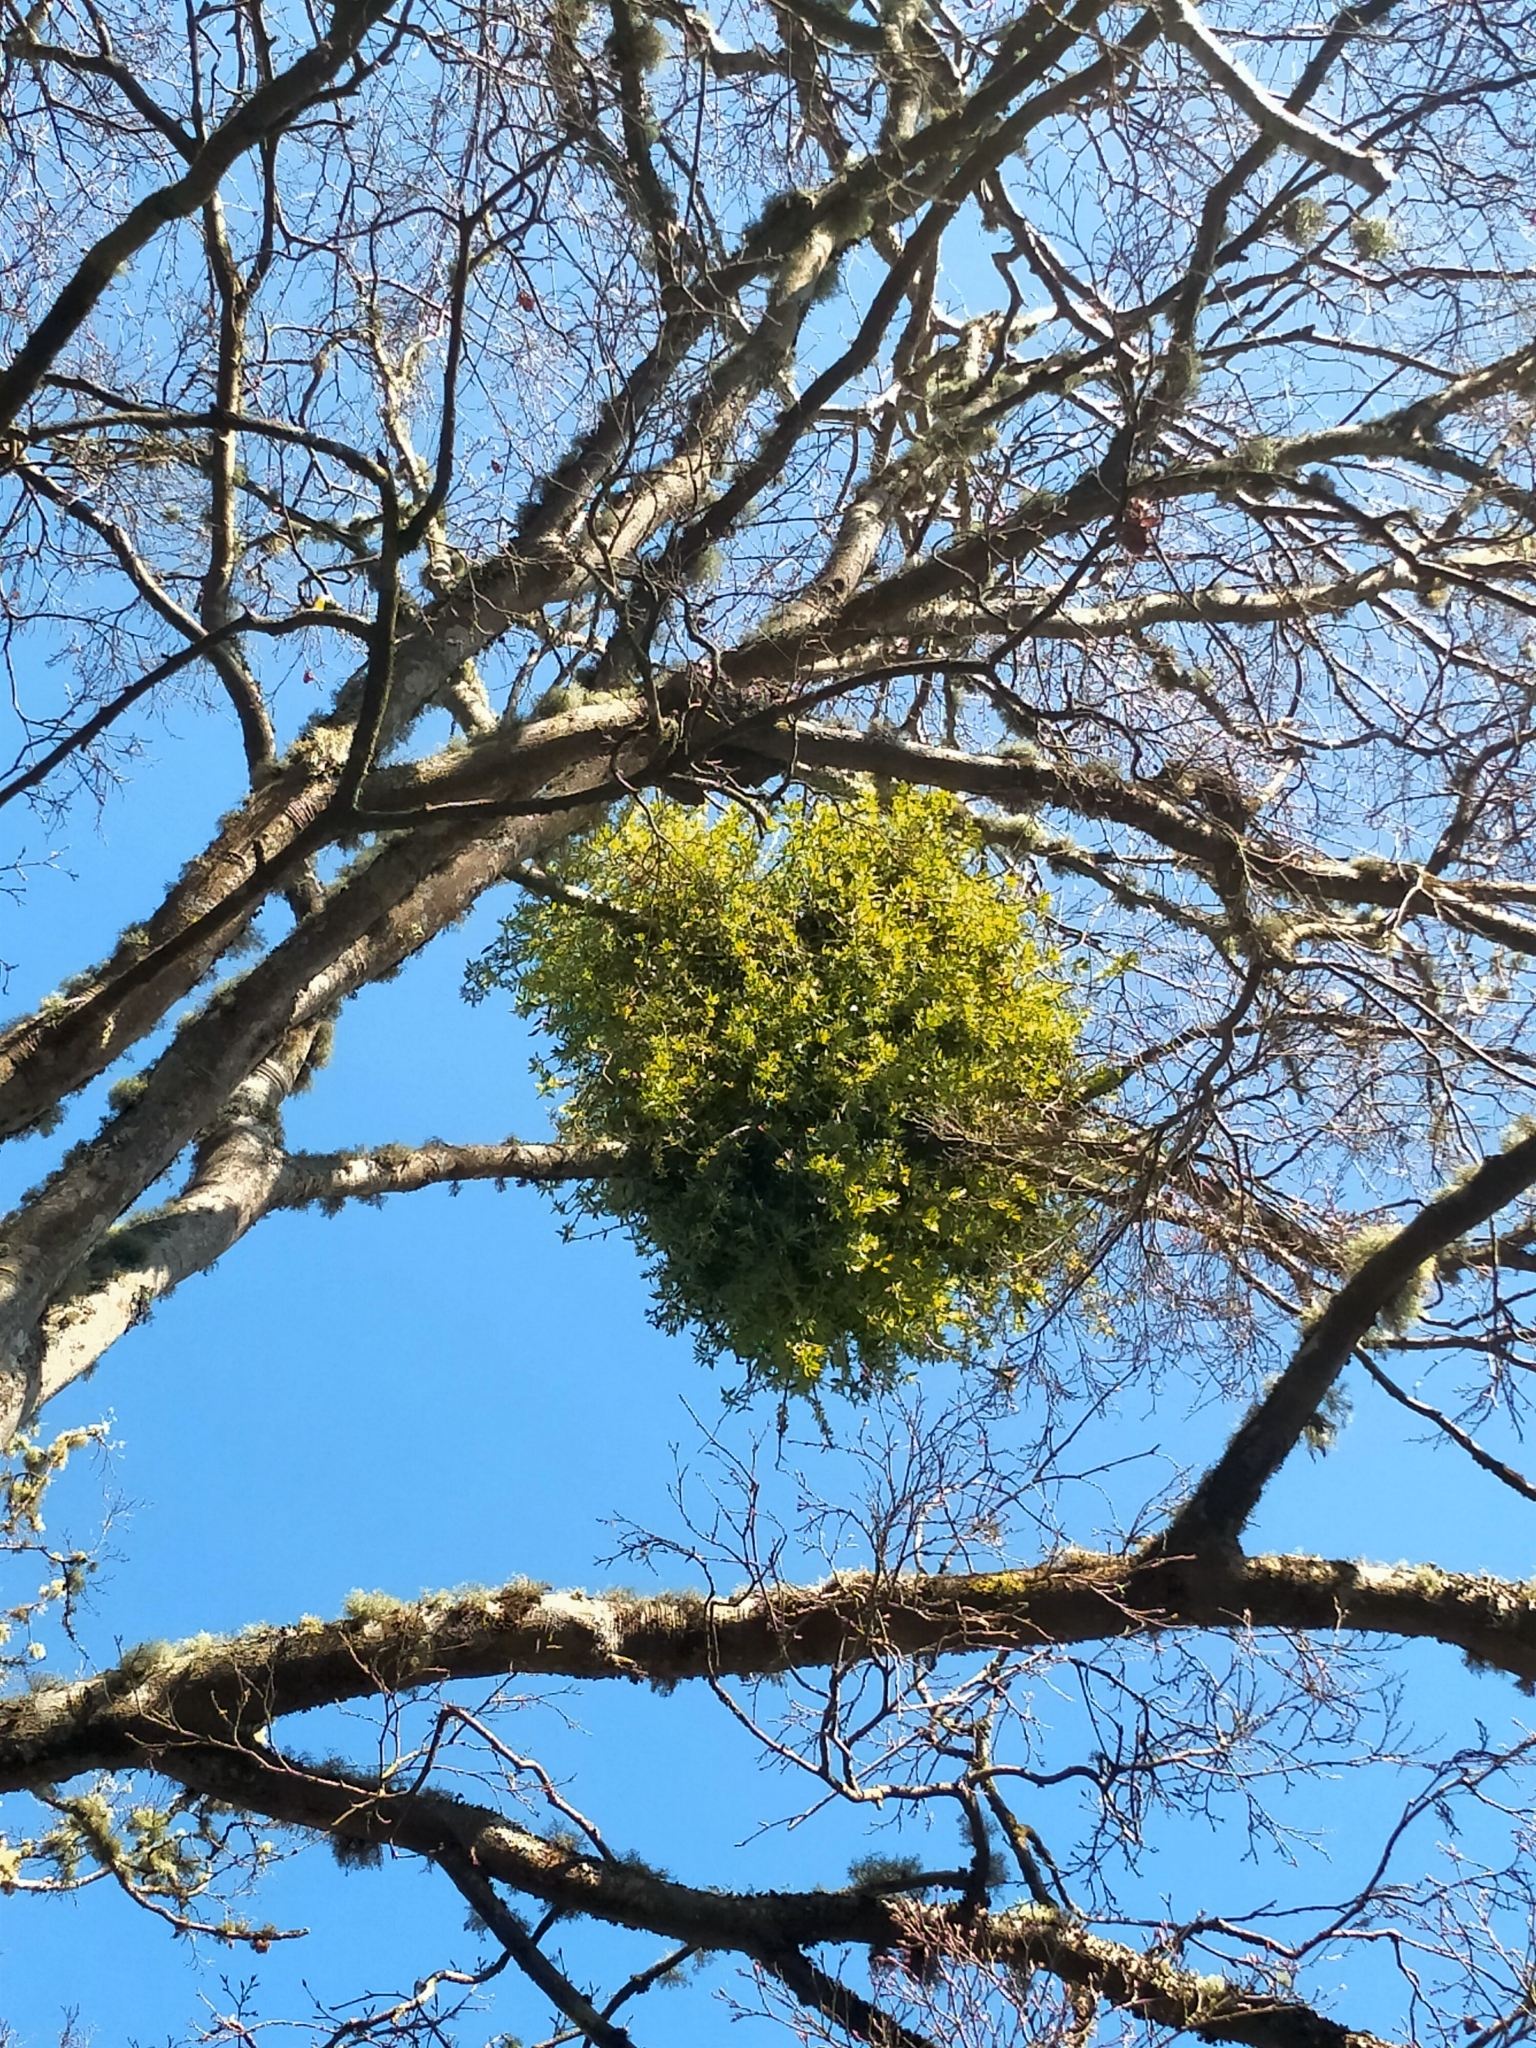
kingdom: Plantae
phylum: Tracheophyta
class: Magnoliopsida
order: Santalales
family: Loranthaceae
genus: Tupeia
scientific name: Tupeia antarctica
